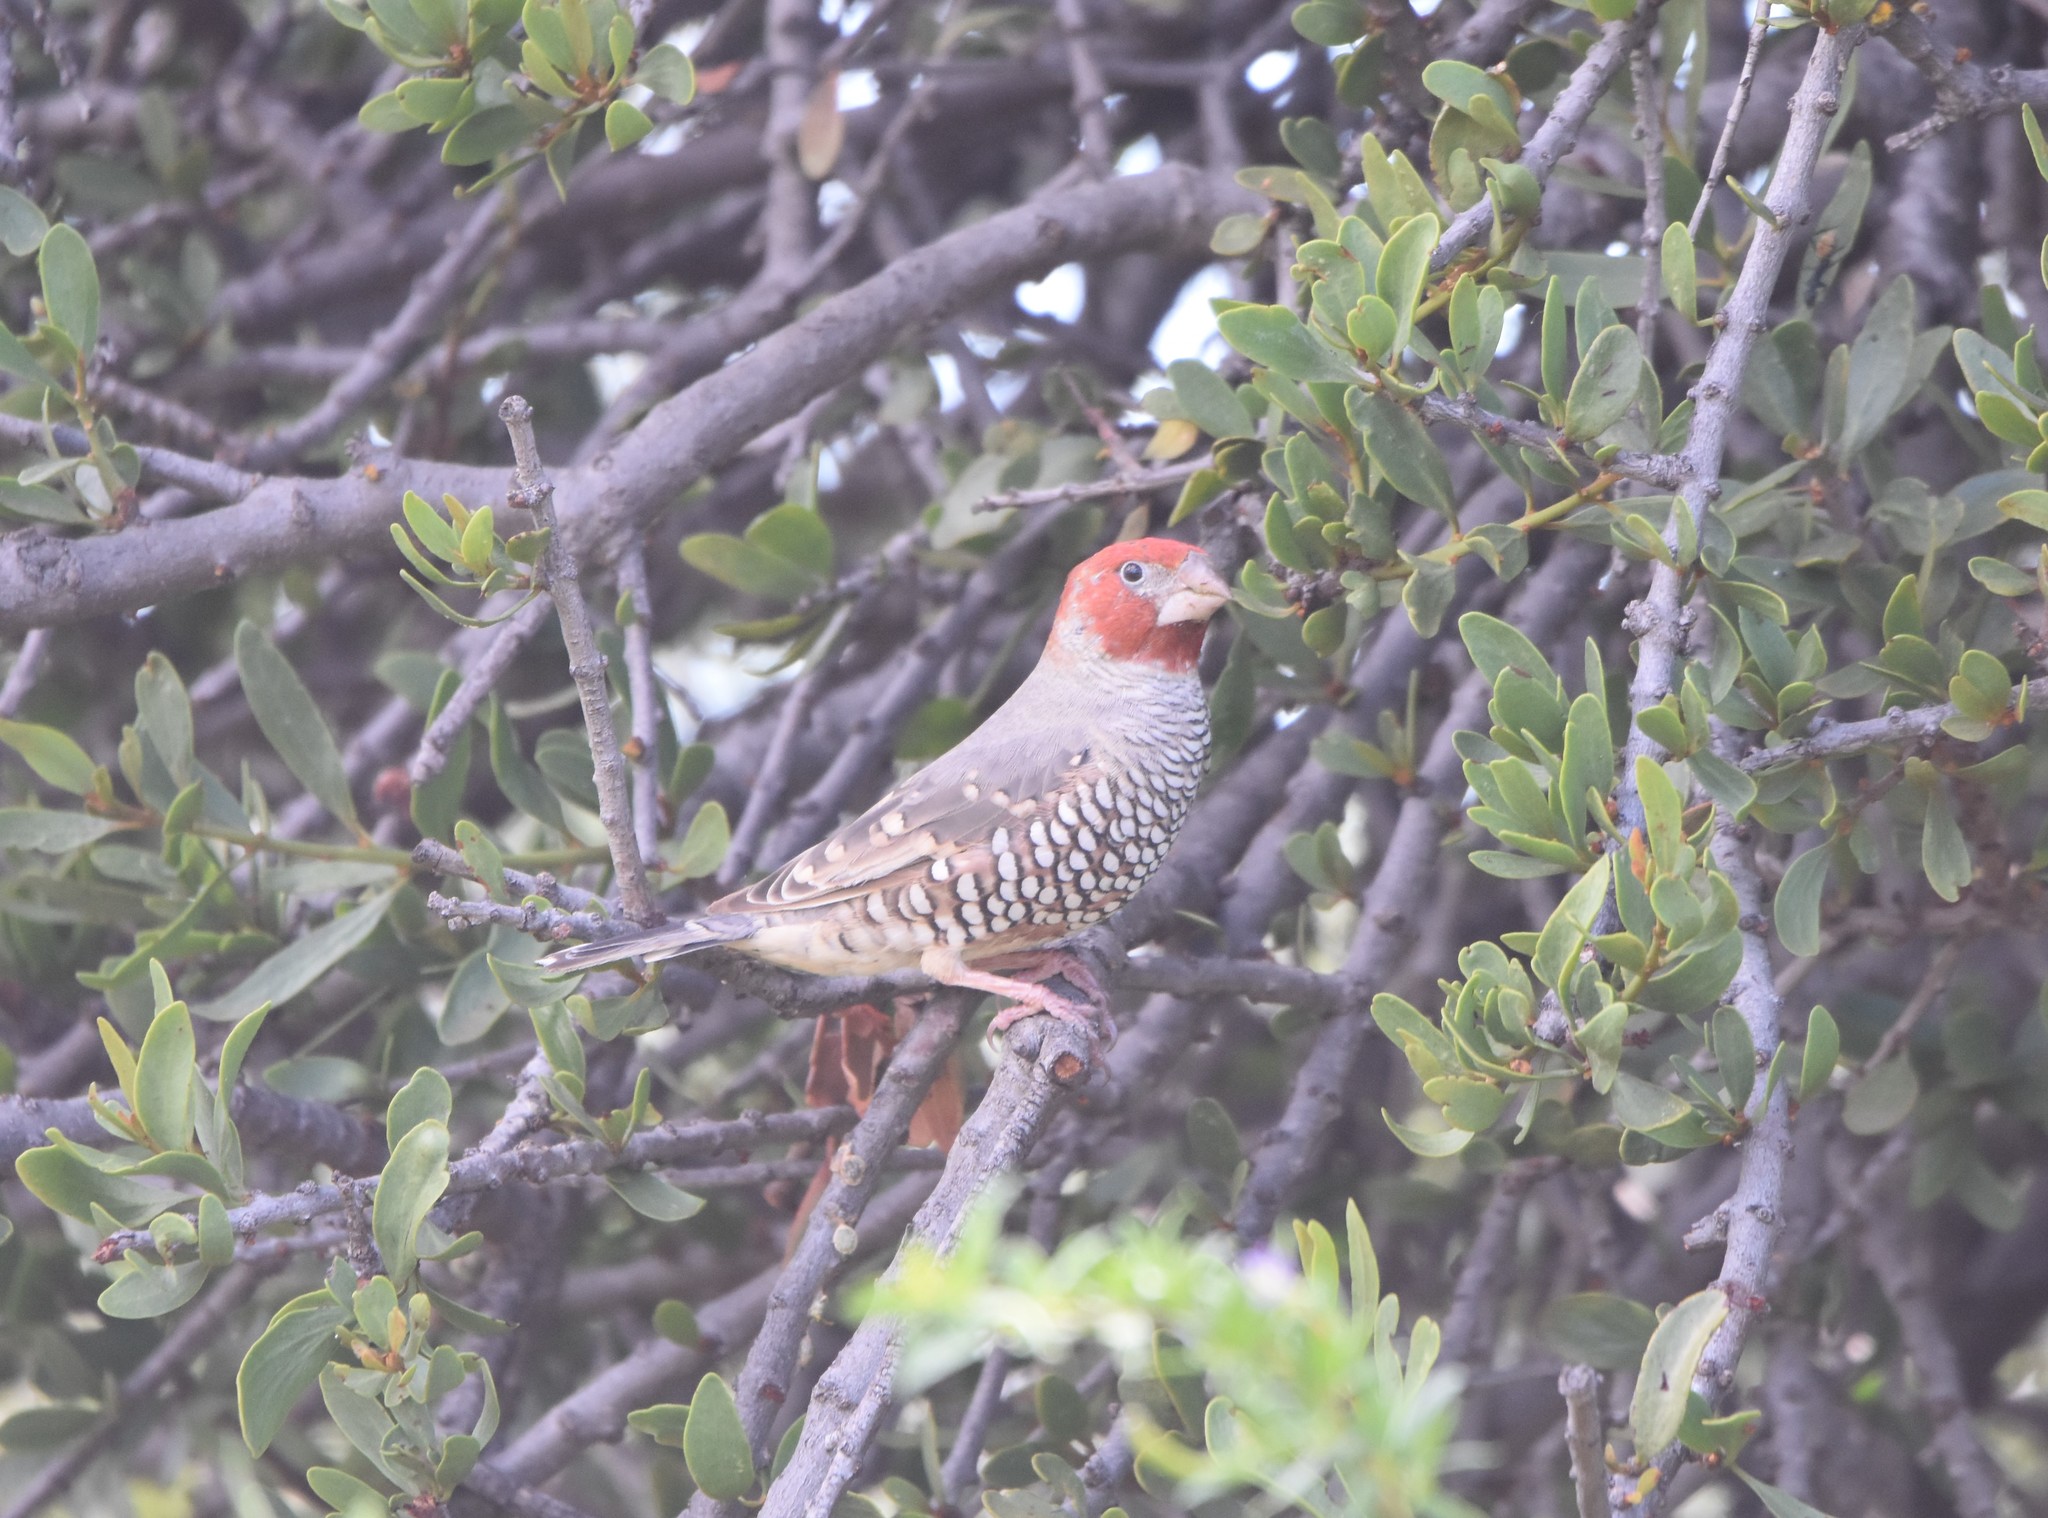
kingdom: Animalia
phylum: Chordata
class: Aves
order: Passeriformes
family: Estrildidae
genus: Amadina
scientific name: Amadina erythrocephala
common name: Red-headed finch
